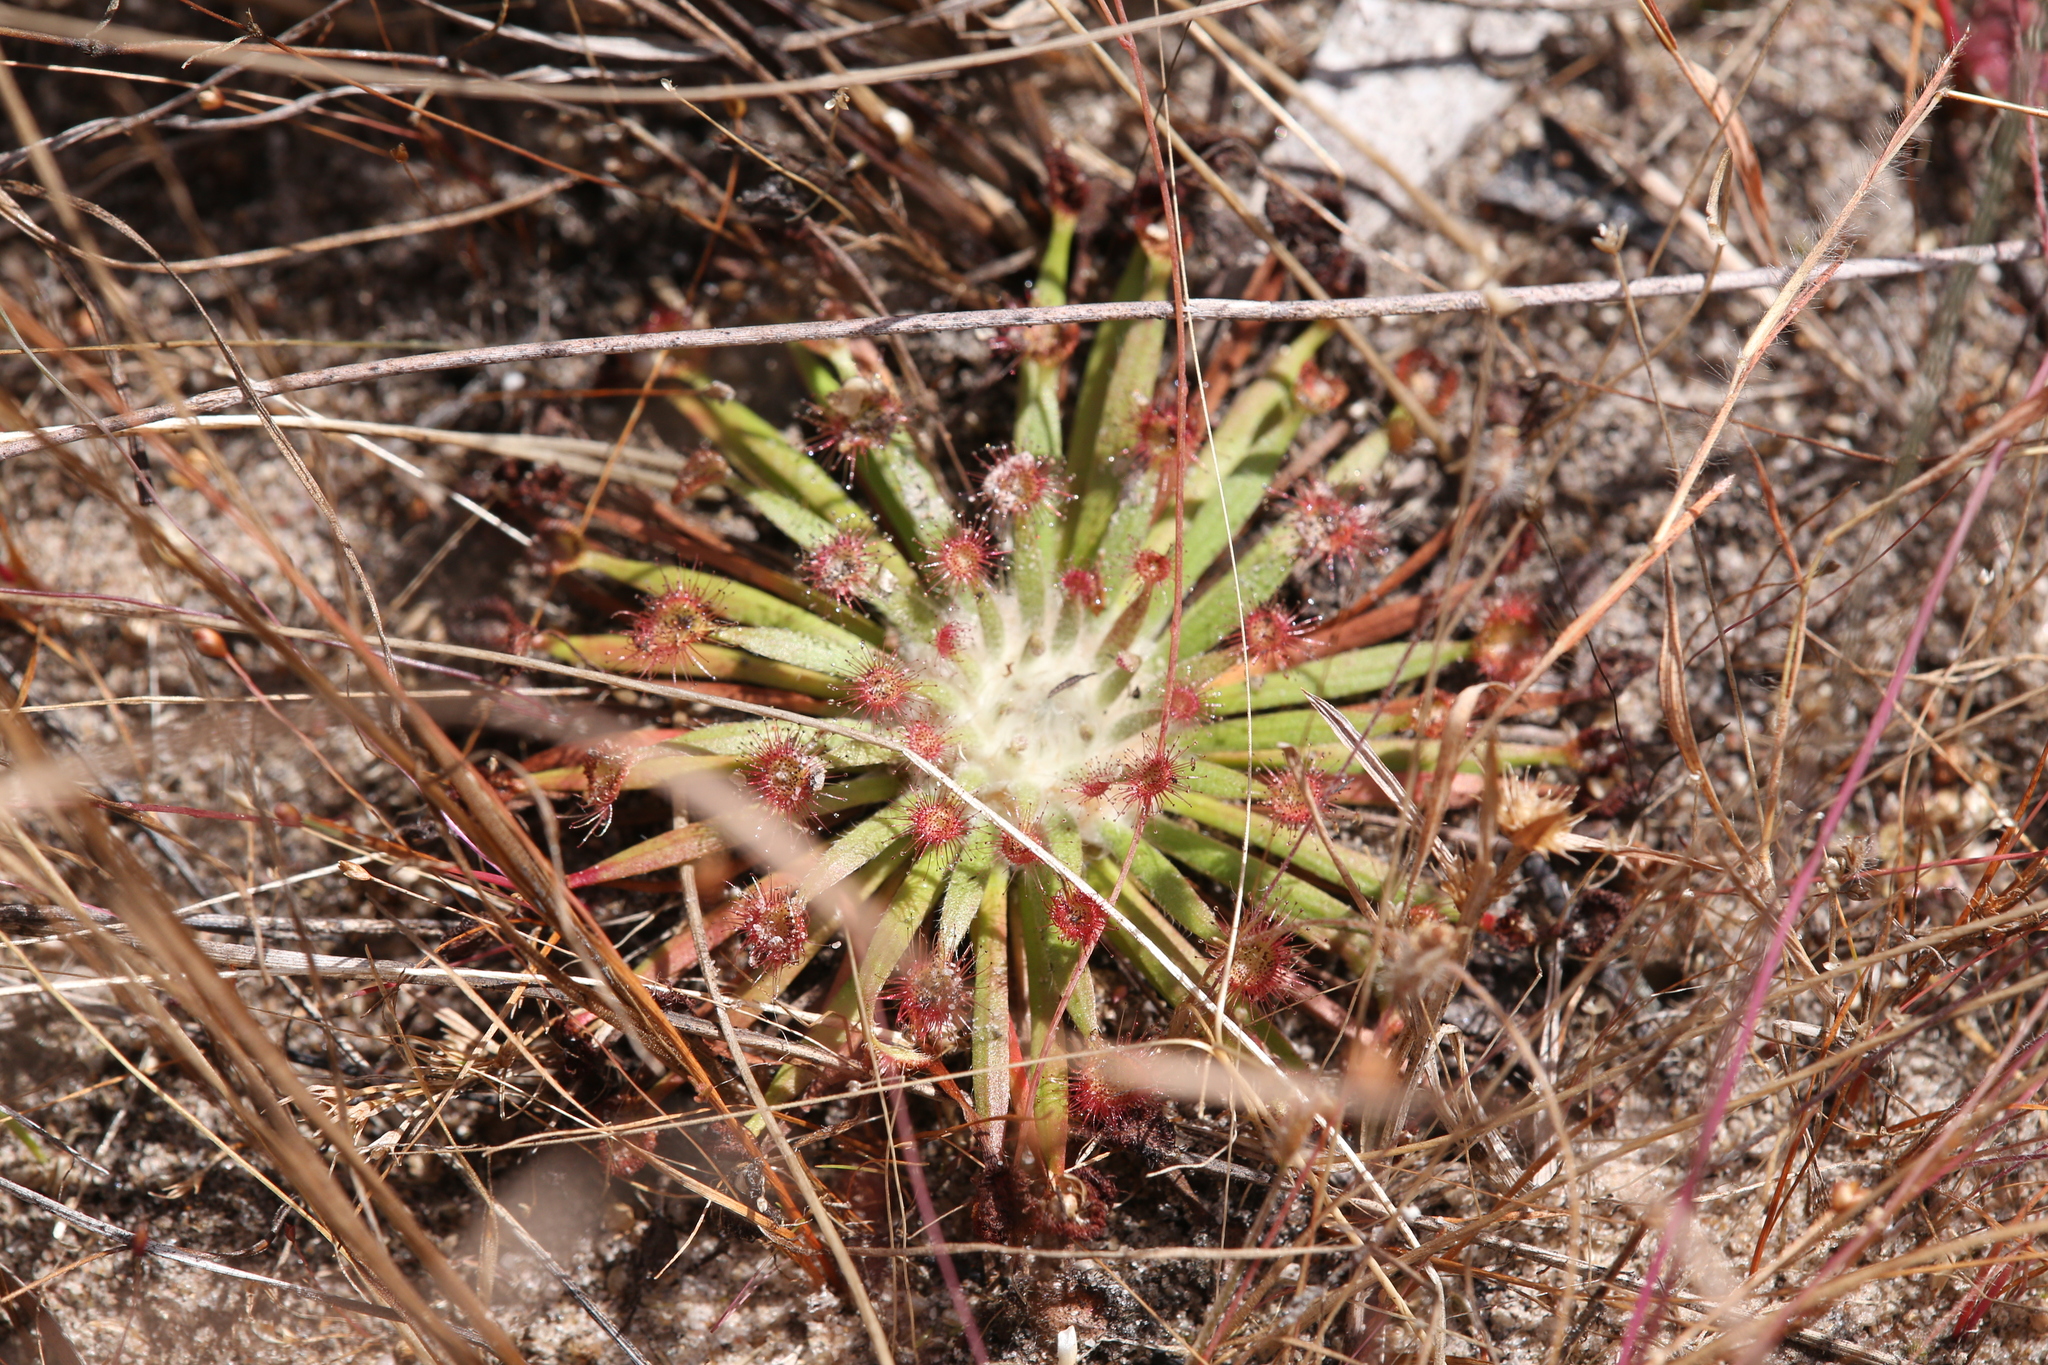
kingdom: Plantae
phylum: Tracheophyta
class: Magnoliopsida
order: Caryophyllales
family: Droseraceae
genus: Drosera
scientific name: Drosera fulva
